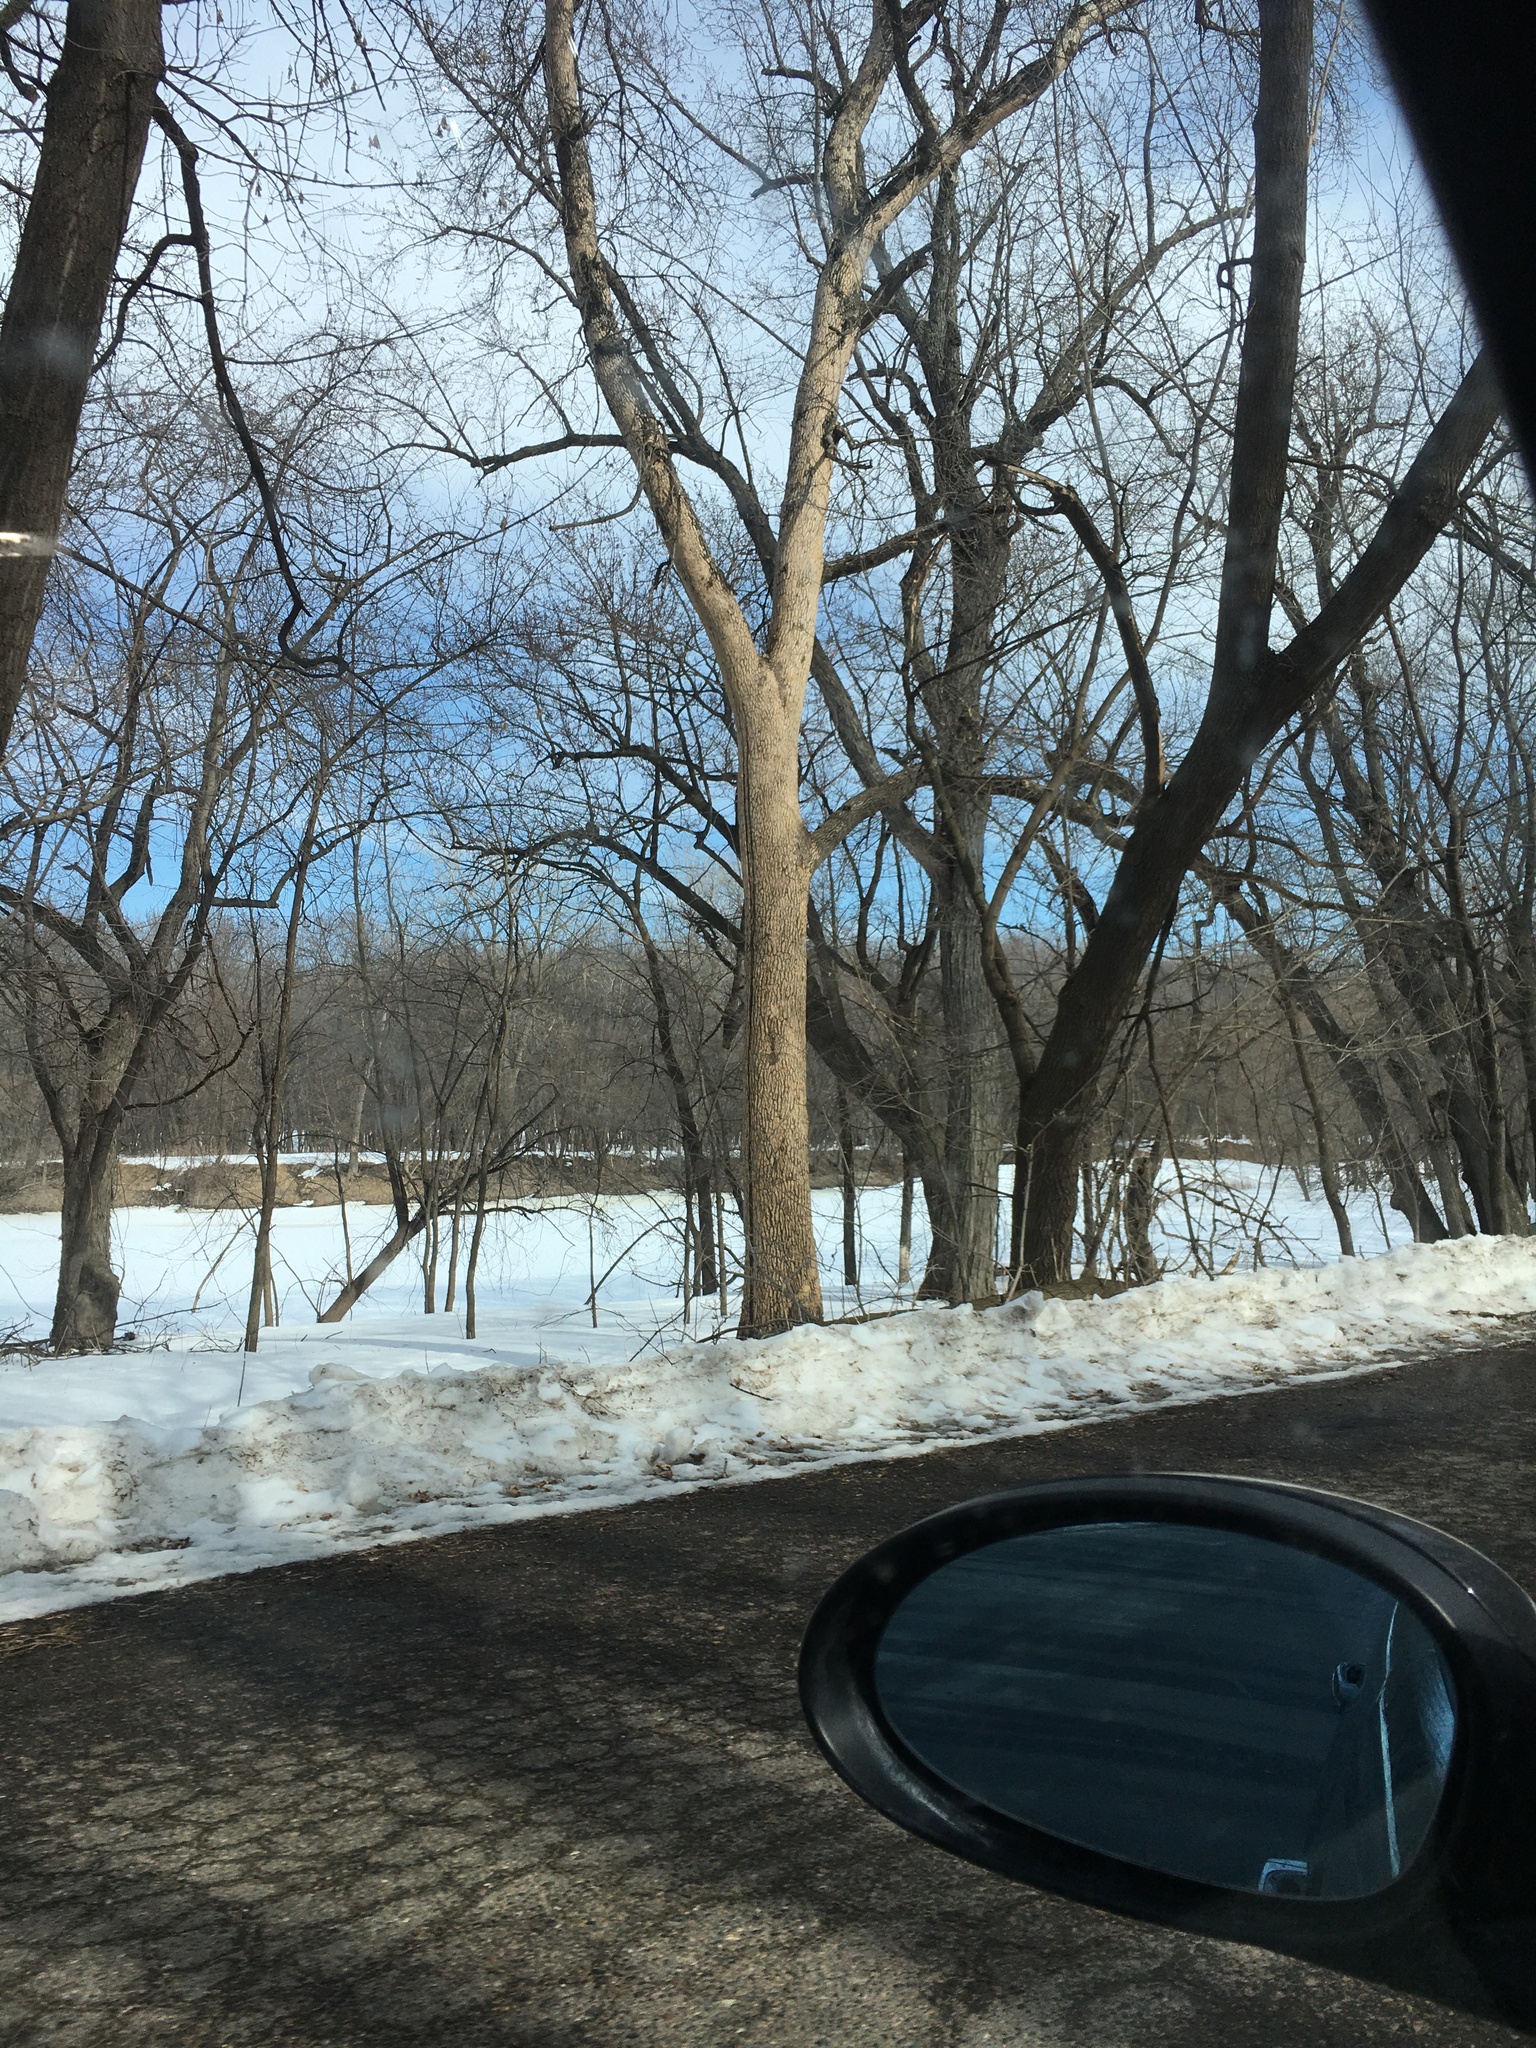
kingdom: Animalia
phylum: Arthropoda
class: Insecta
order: Coleoptera
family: Buprestidae
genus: Agrilus
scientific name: Agrilus planipennis
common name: Emerald ash borer
